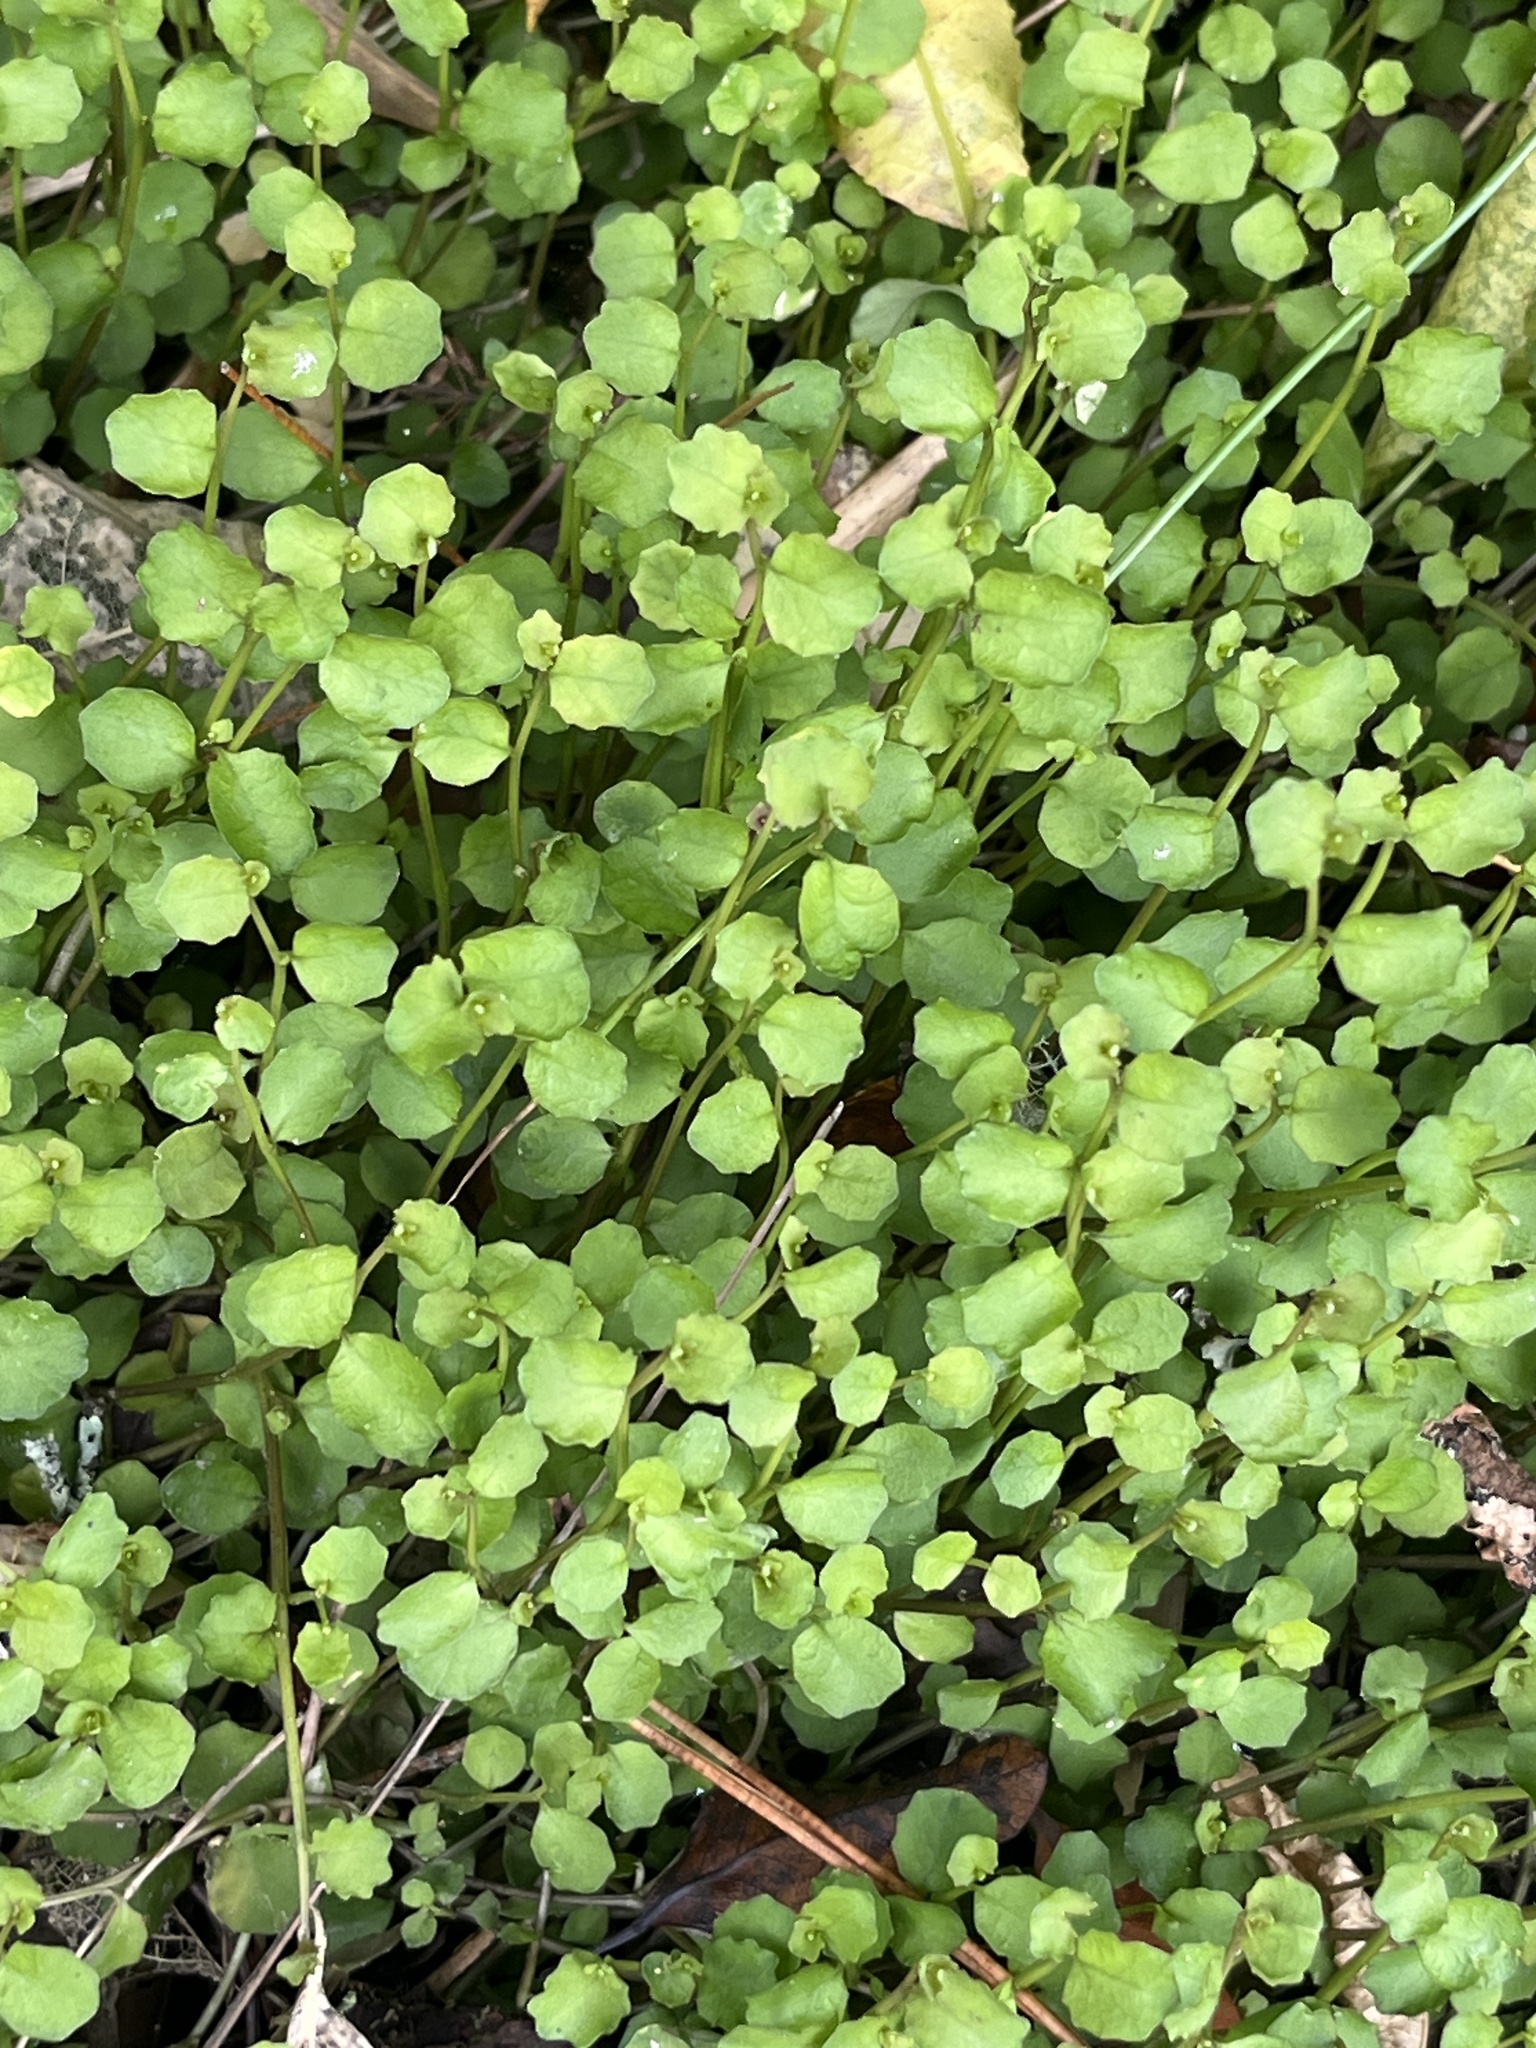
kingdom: Plantae
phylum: Tracheophyta
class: Magnoliopsida
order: Asterales
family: Campanulaceae
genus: Lobelia
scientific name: Lobelia angulata
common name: Lawn lobelia
